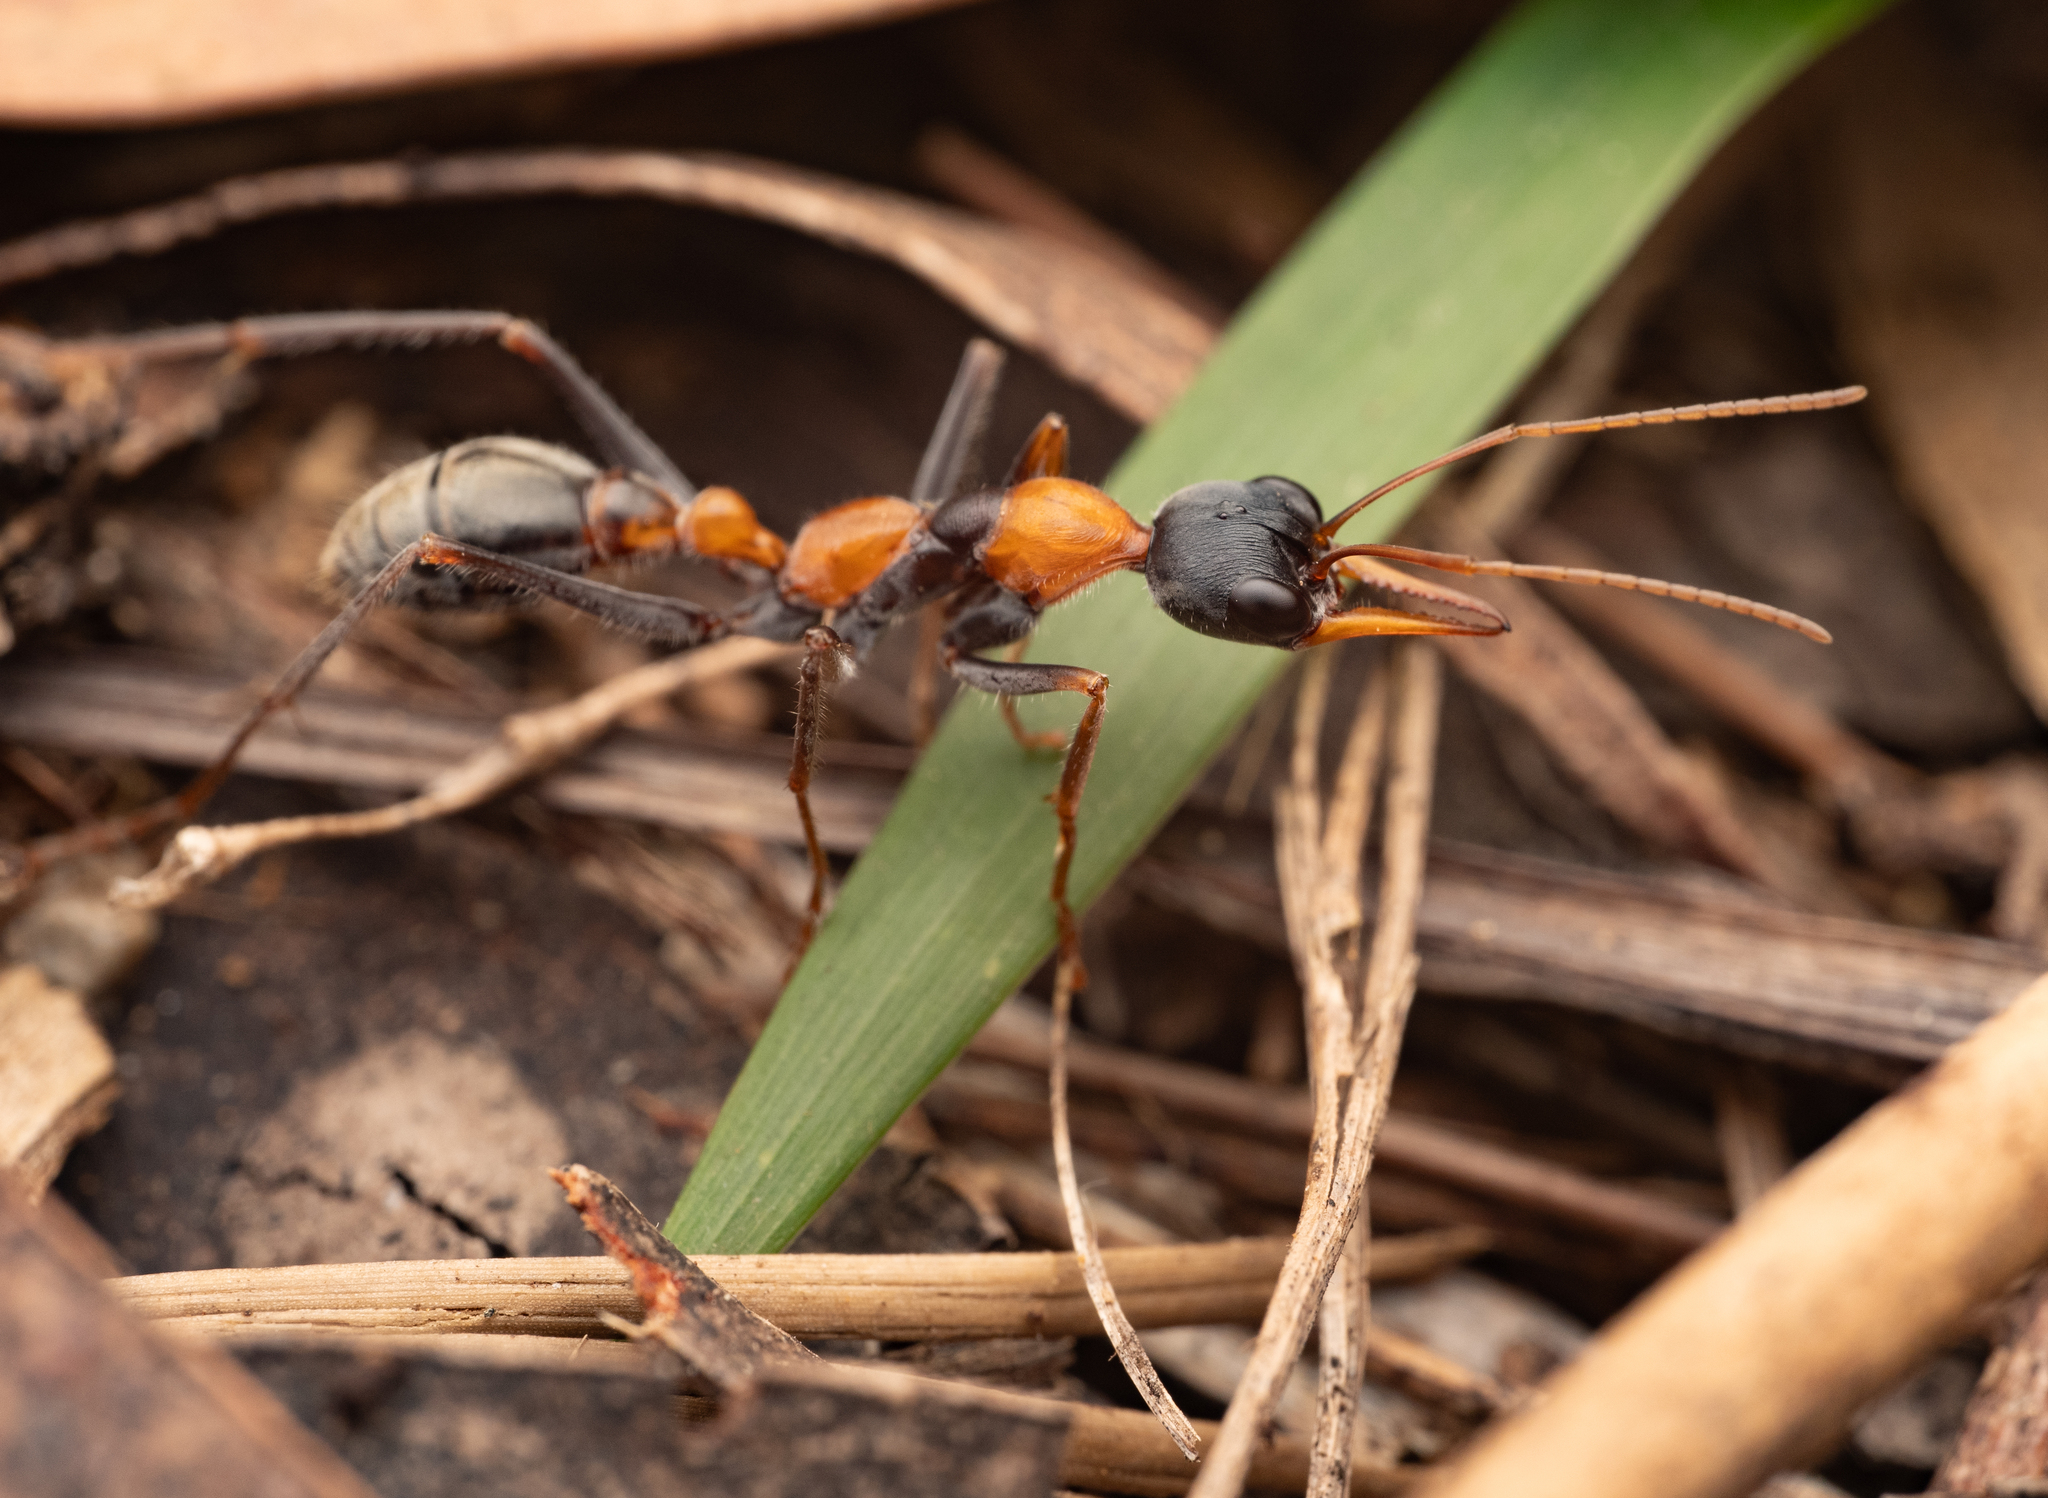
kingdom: Animalia
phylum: Arthropoda
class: Insecta
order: Hymenoptera
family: Formicidae
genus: Myrmecia
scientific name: Myrmecia nigrocincta
